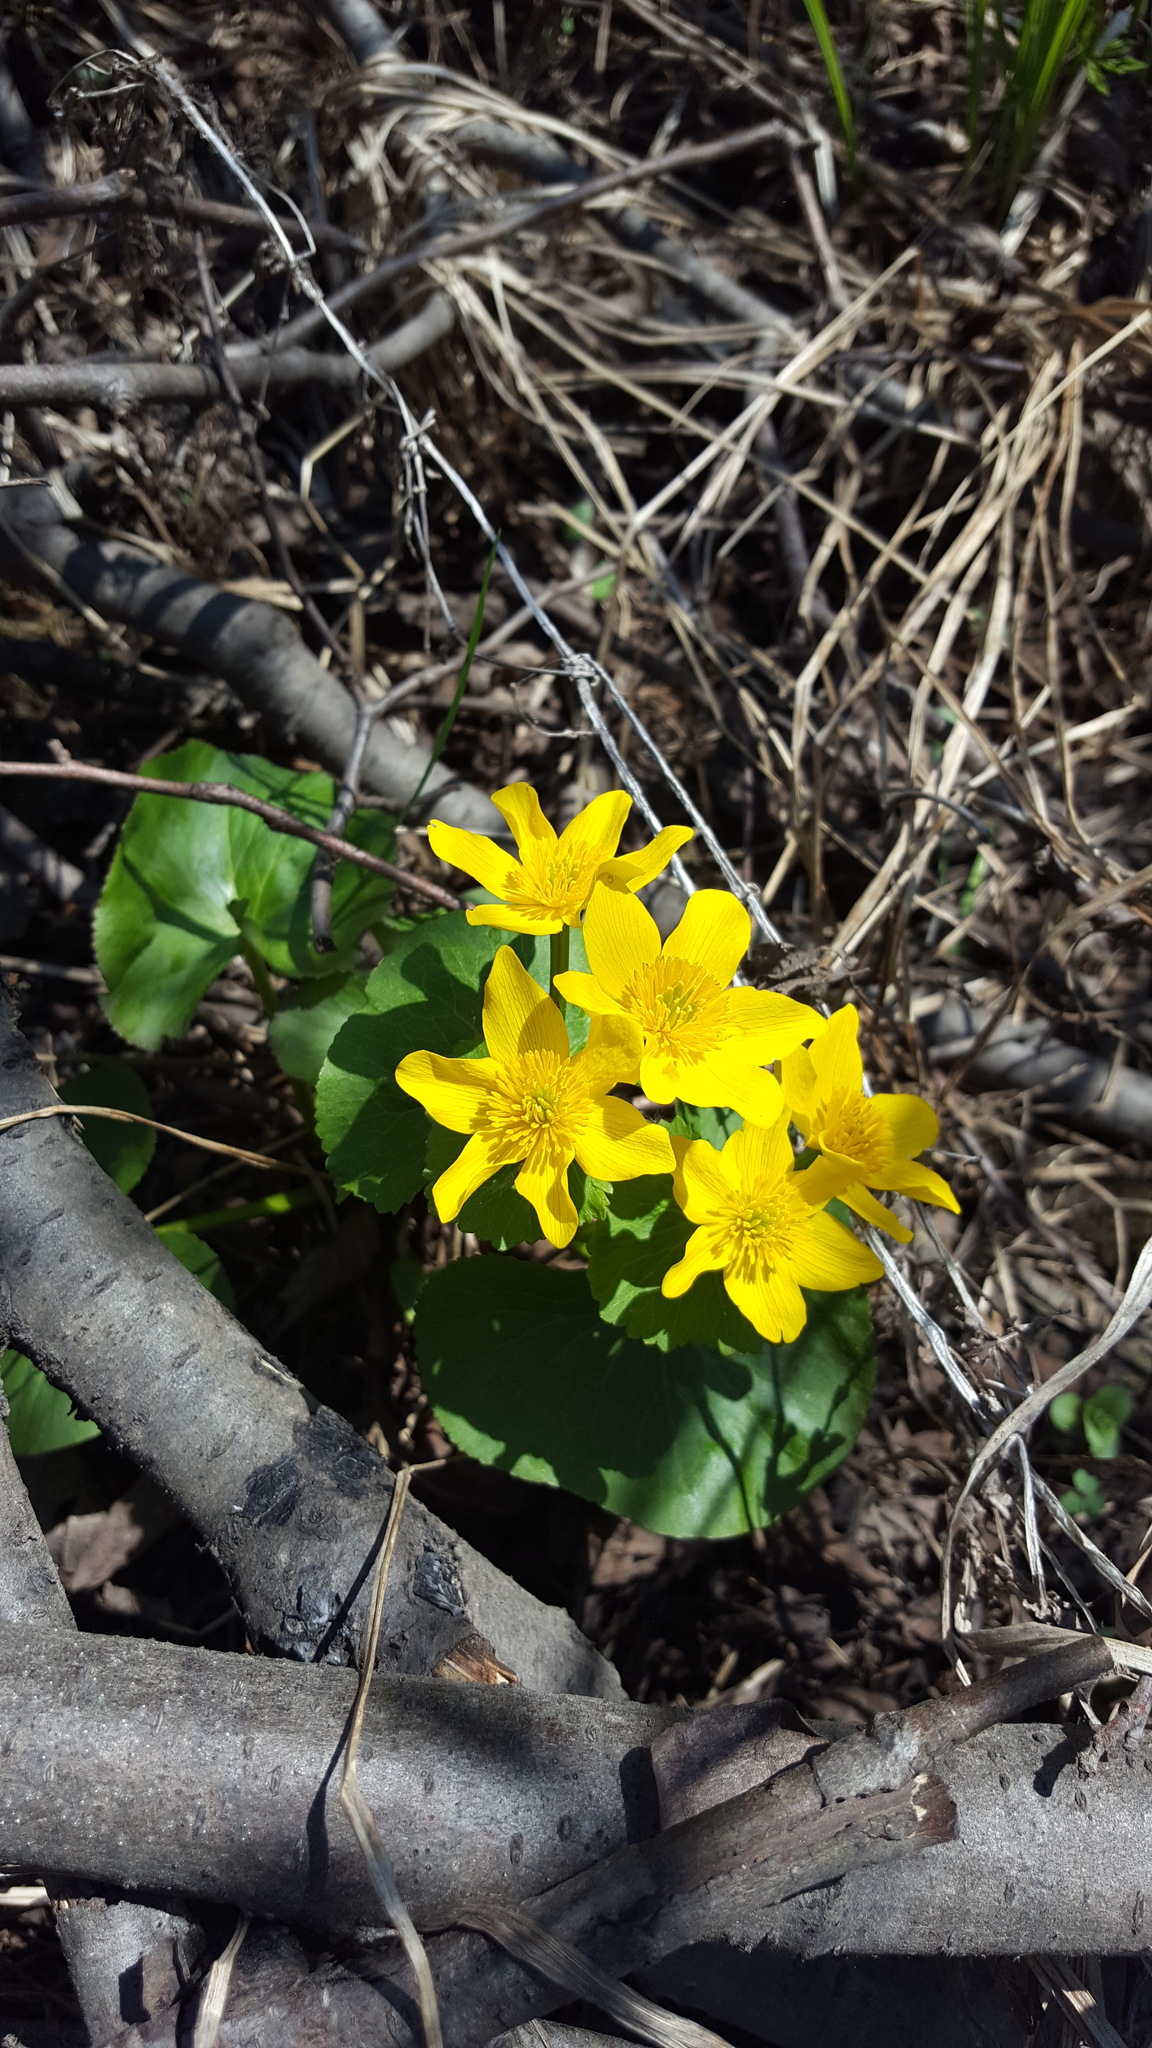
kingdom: Plantae
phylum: Tracheophyta
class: Magnoliopsida
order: Ranunculales
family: Ranunculaceae
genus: Caltha
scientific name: Caltha palustris
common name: Marsh marigold
